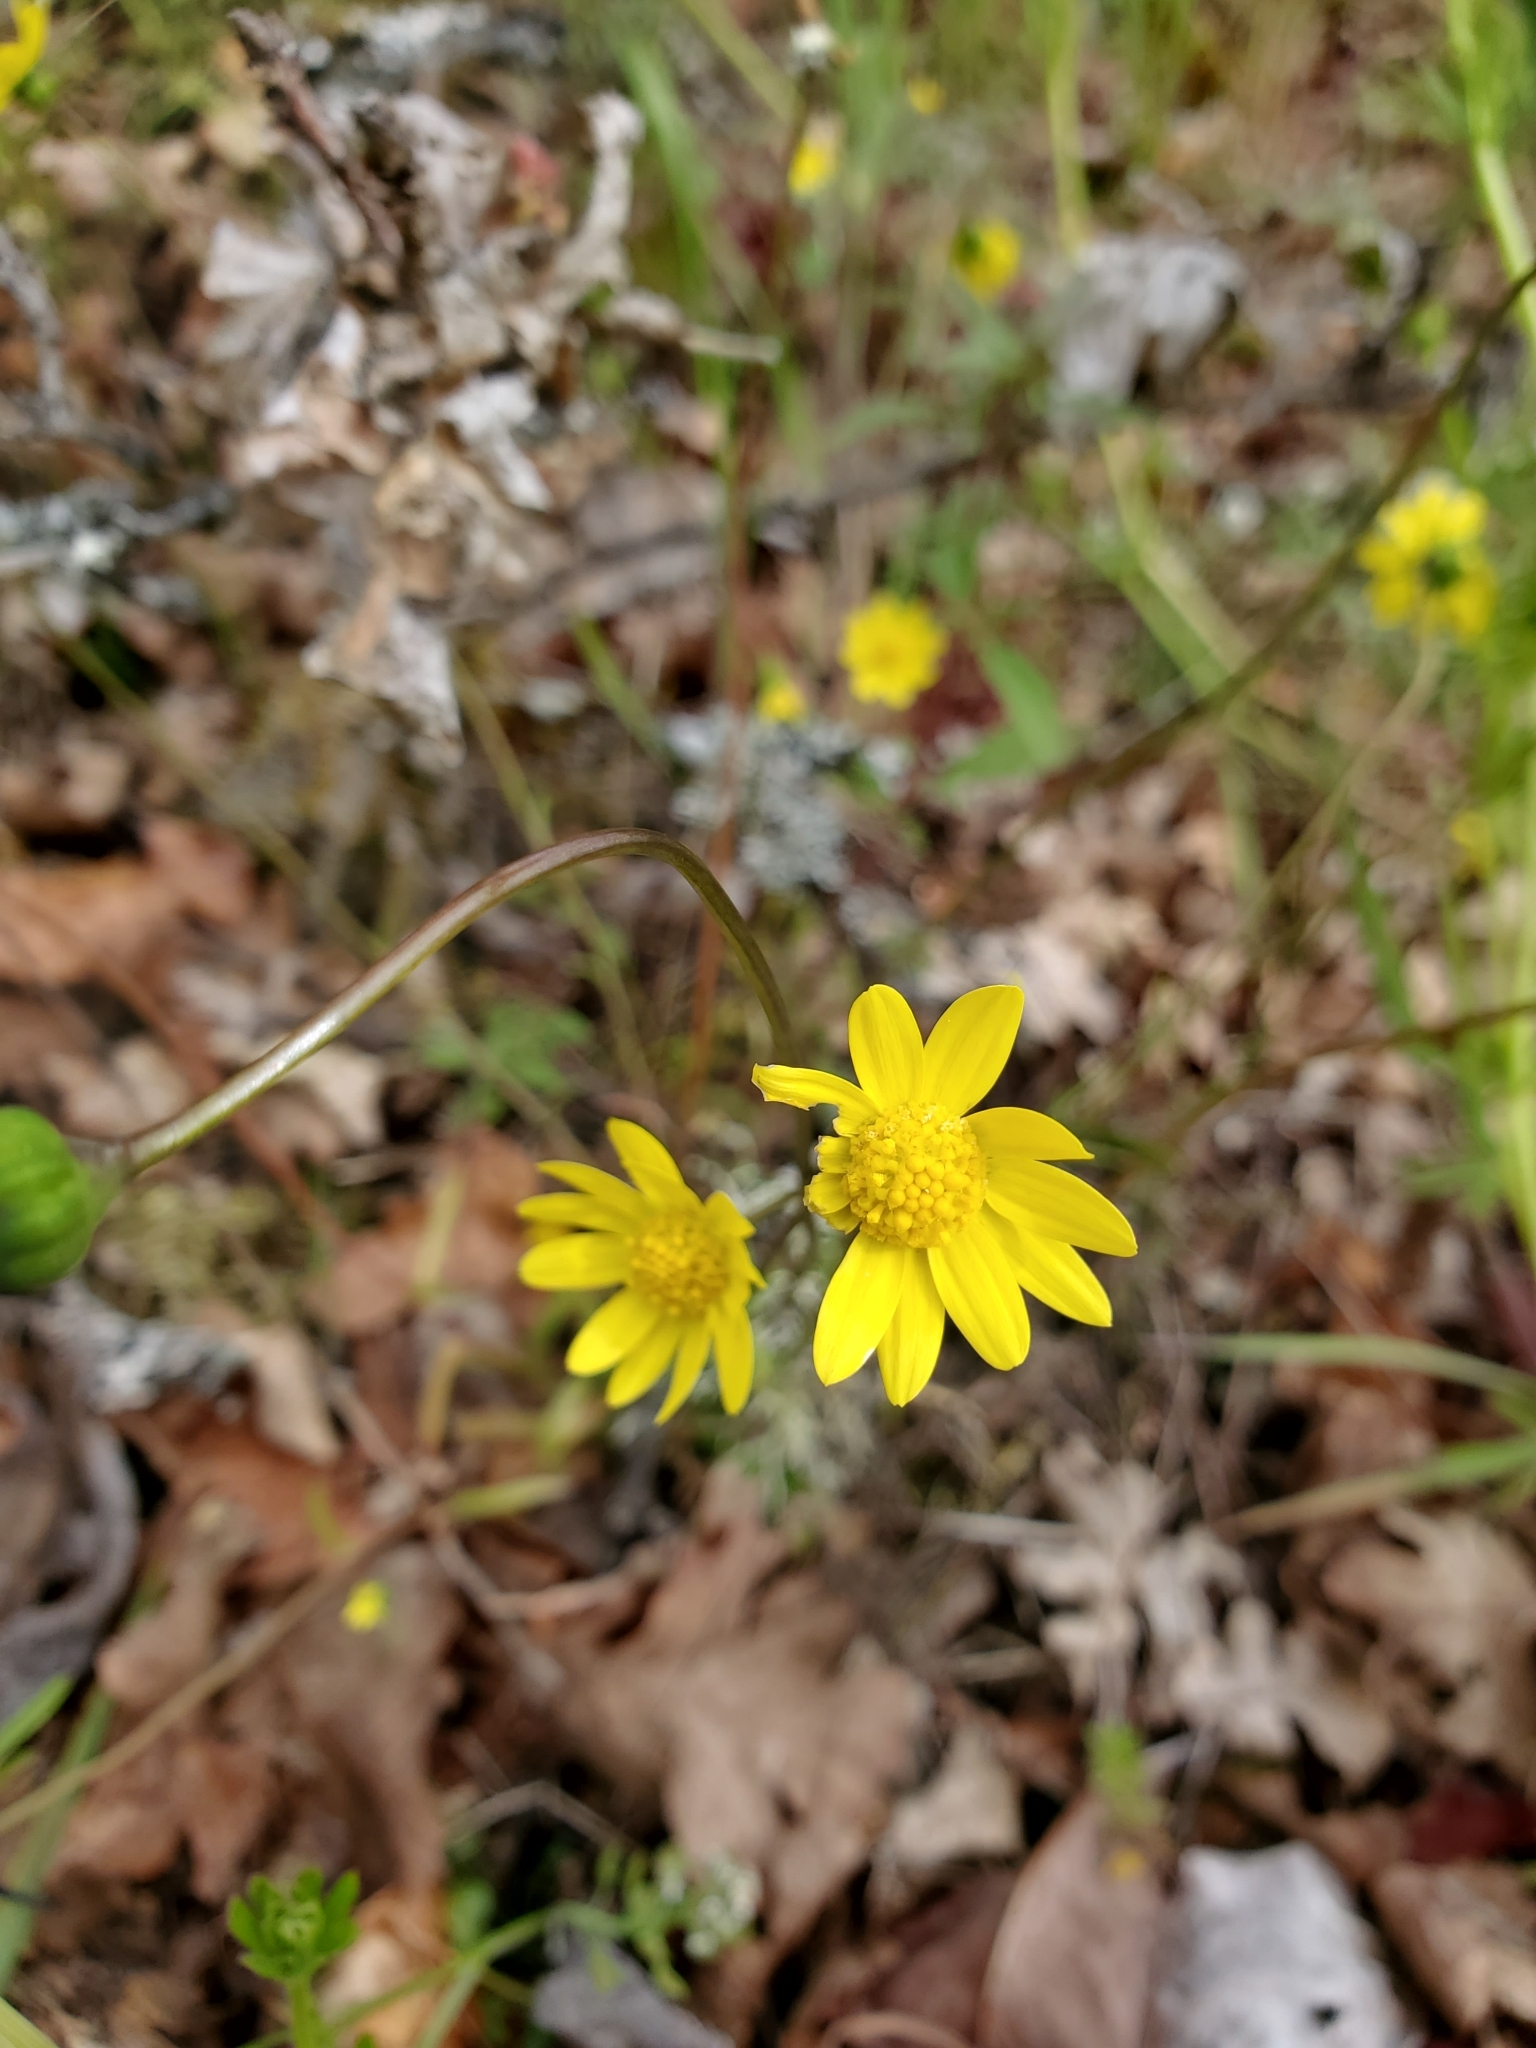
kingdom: Plantae
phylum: Tracheophyta
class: Magnoliopsida
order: Asterales
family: Asteraceae
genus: Crocidium
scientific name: Crocidium multicaule
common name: Common spring gold
